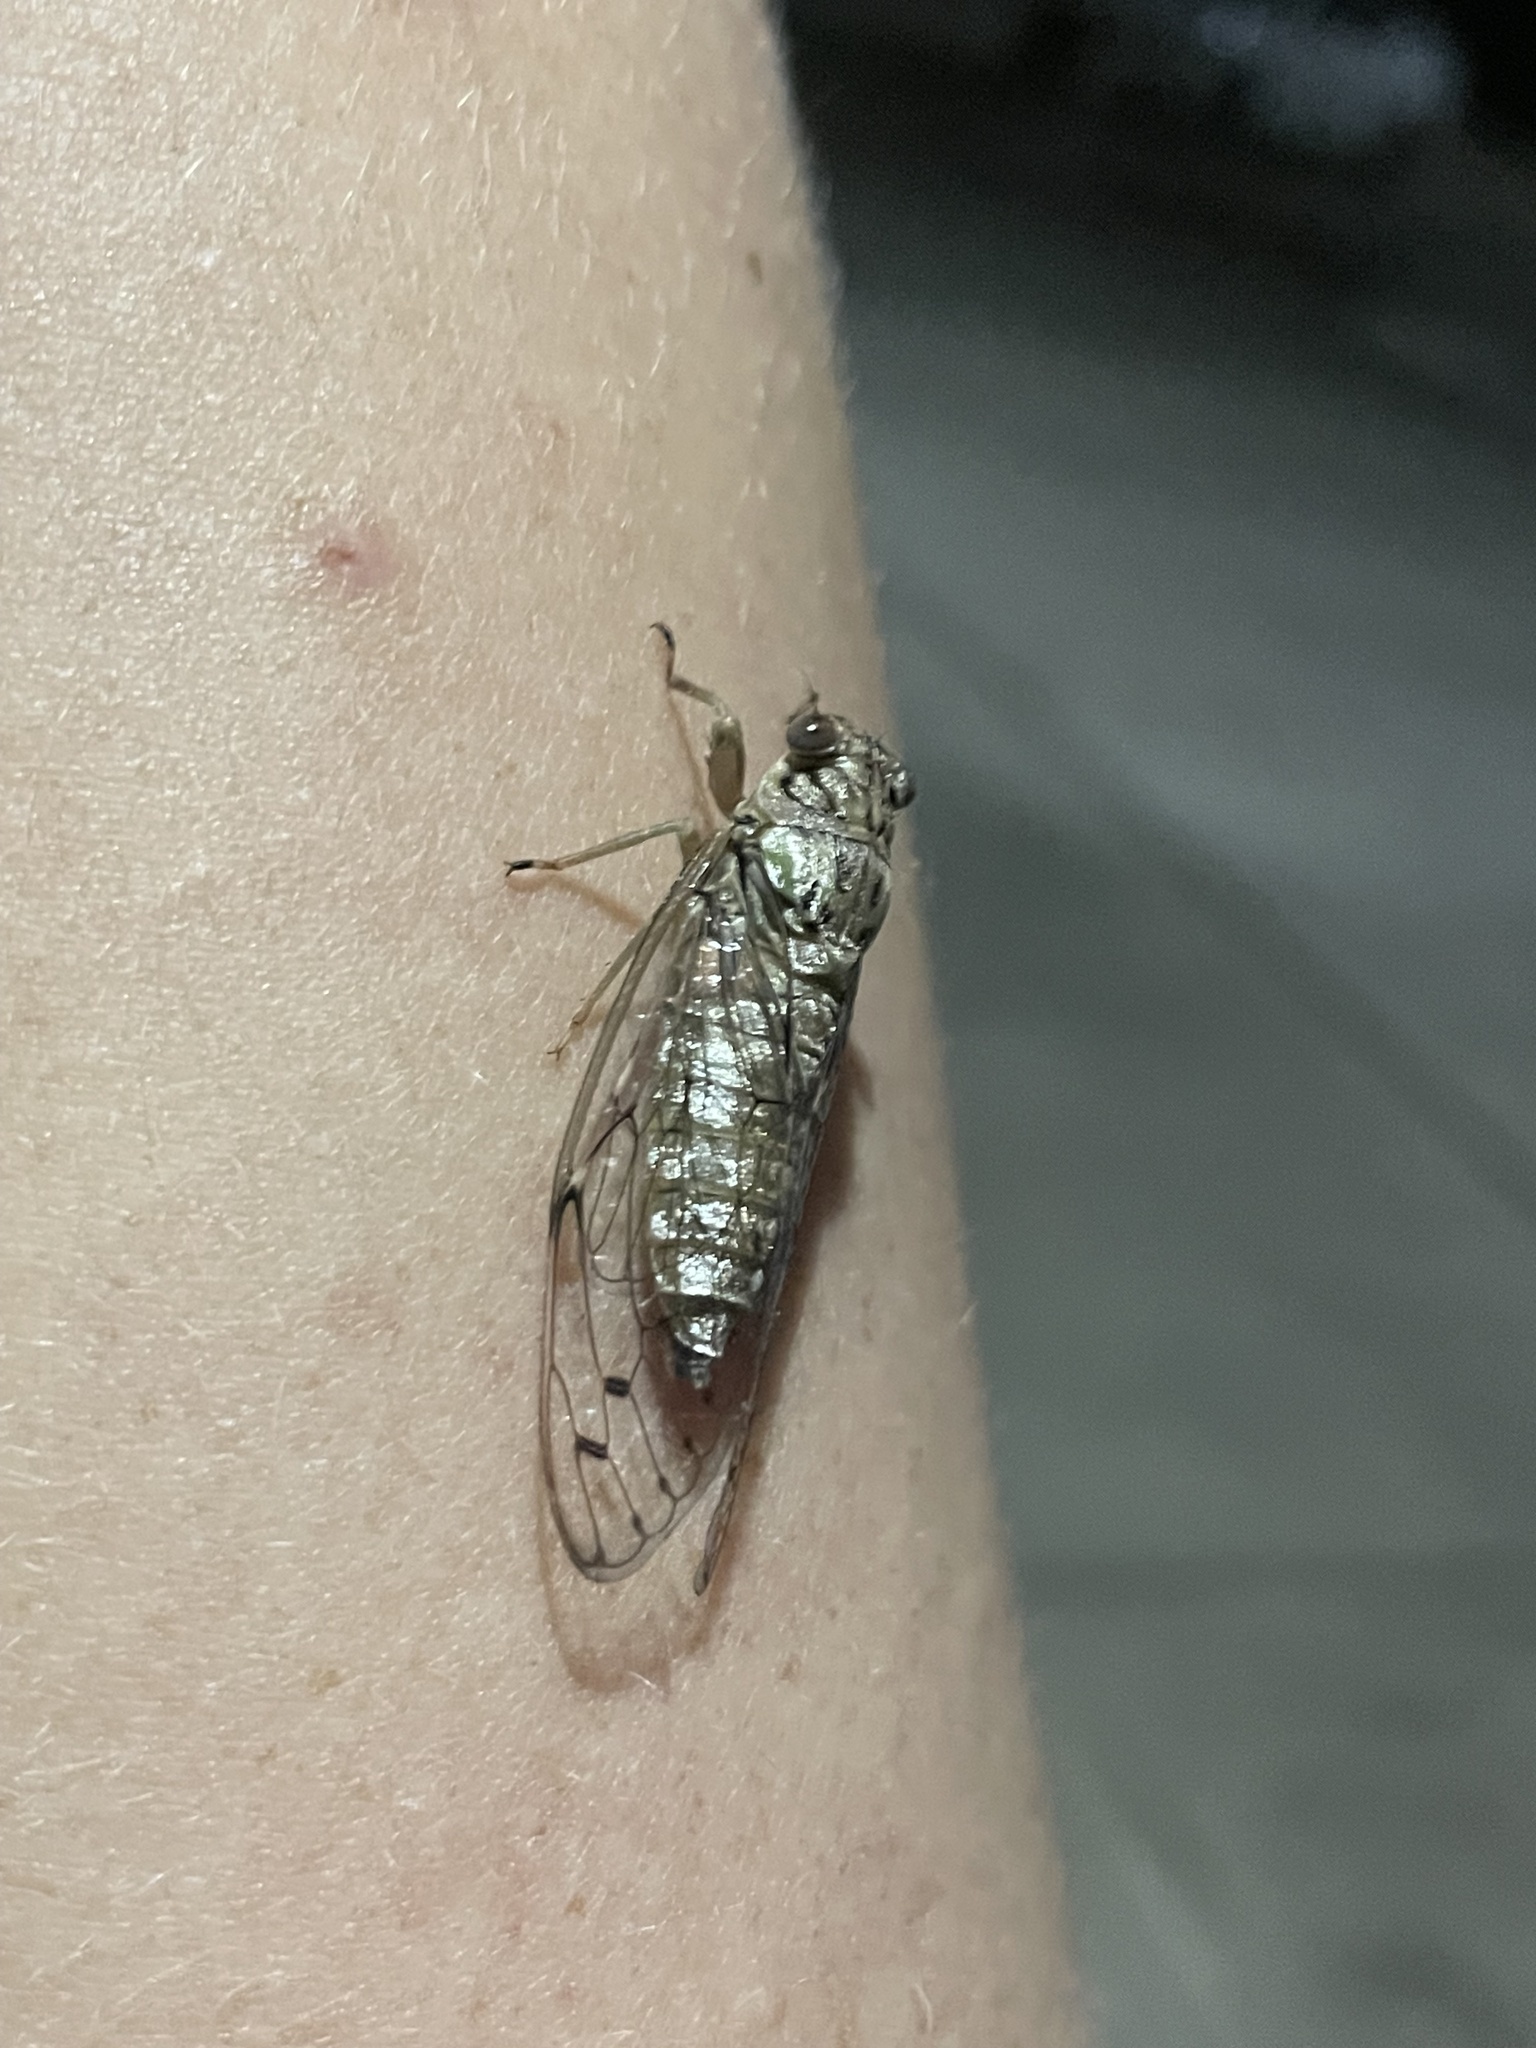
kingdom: Animalia
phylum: Arthropoda
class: Insecta
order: Hemiptera
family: Cicadidae
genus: Neocicada
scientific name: Neocicada hieroglyphica
